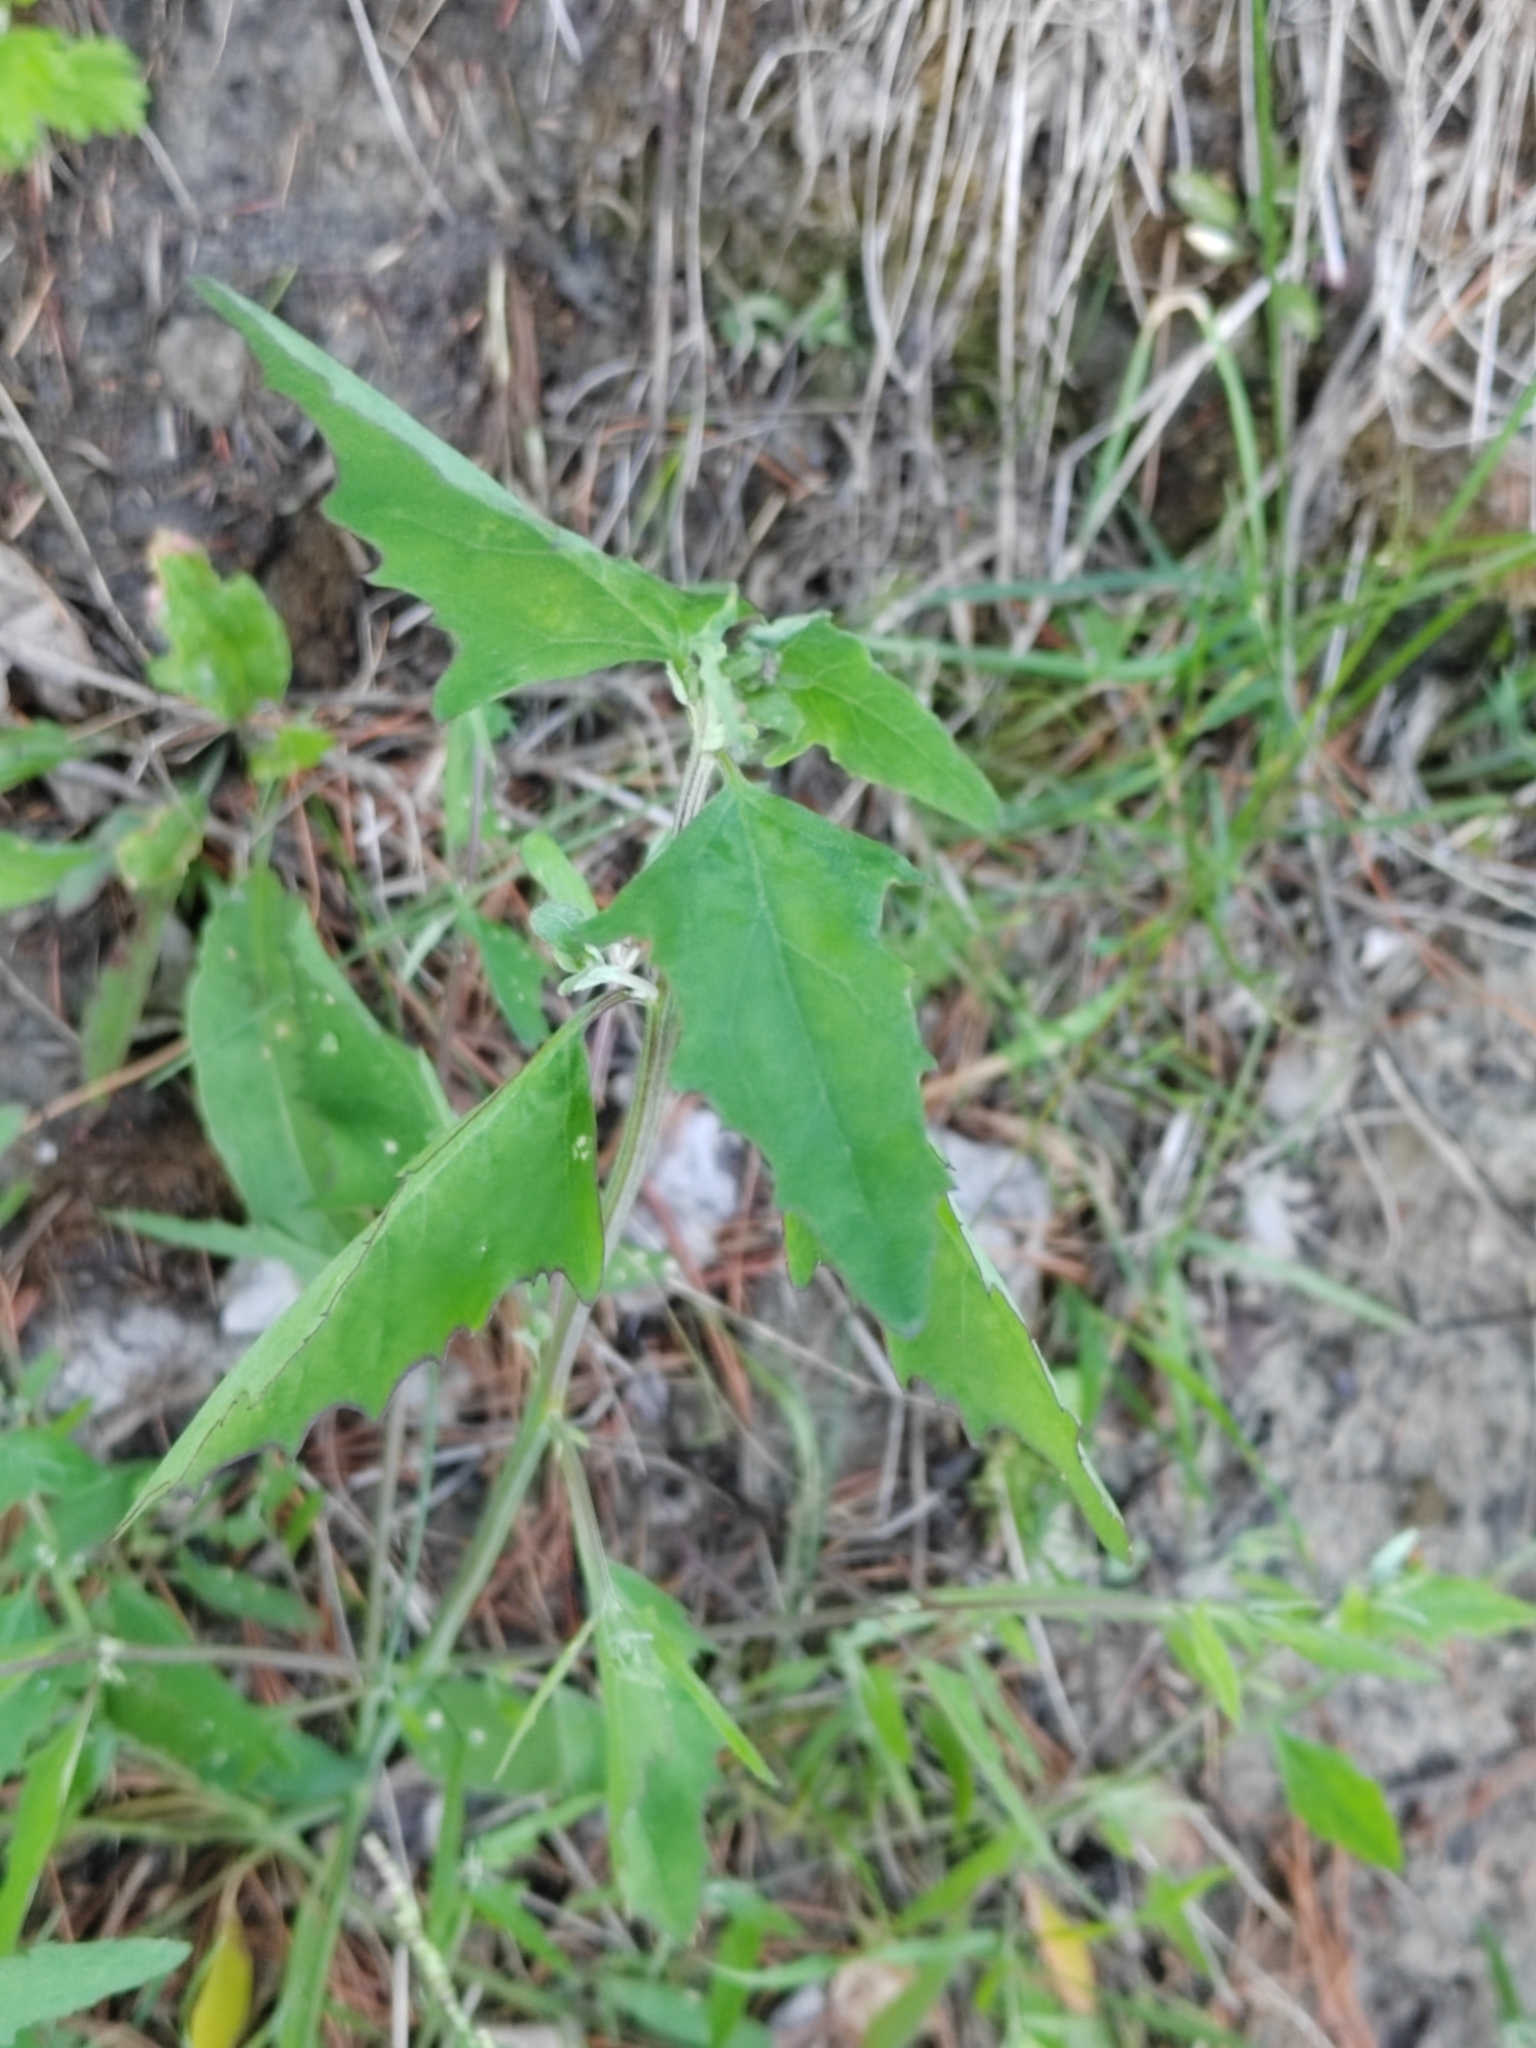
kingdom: Plantae
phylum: Tracheophyta
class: Magnoliopsida
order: Caryophyllales
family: Amaranthaceae
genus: Atriplex
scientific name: Atriplex patula
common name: Common orache
